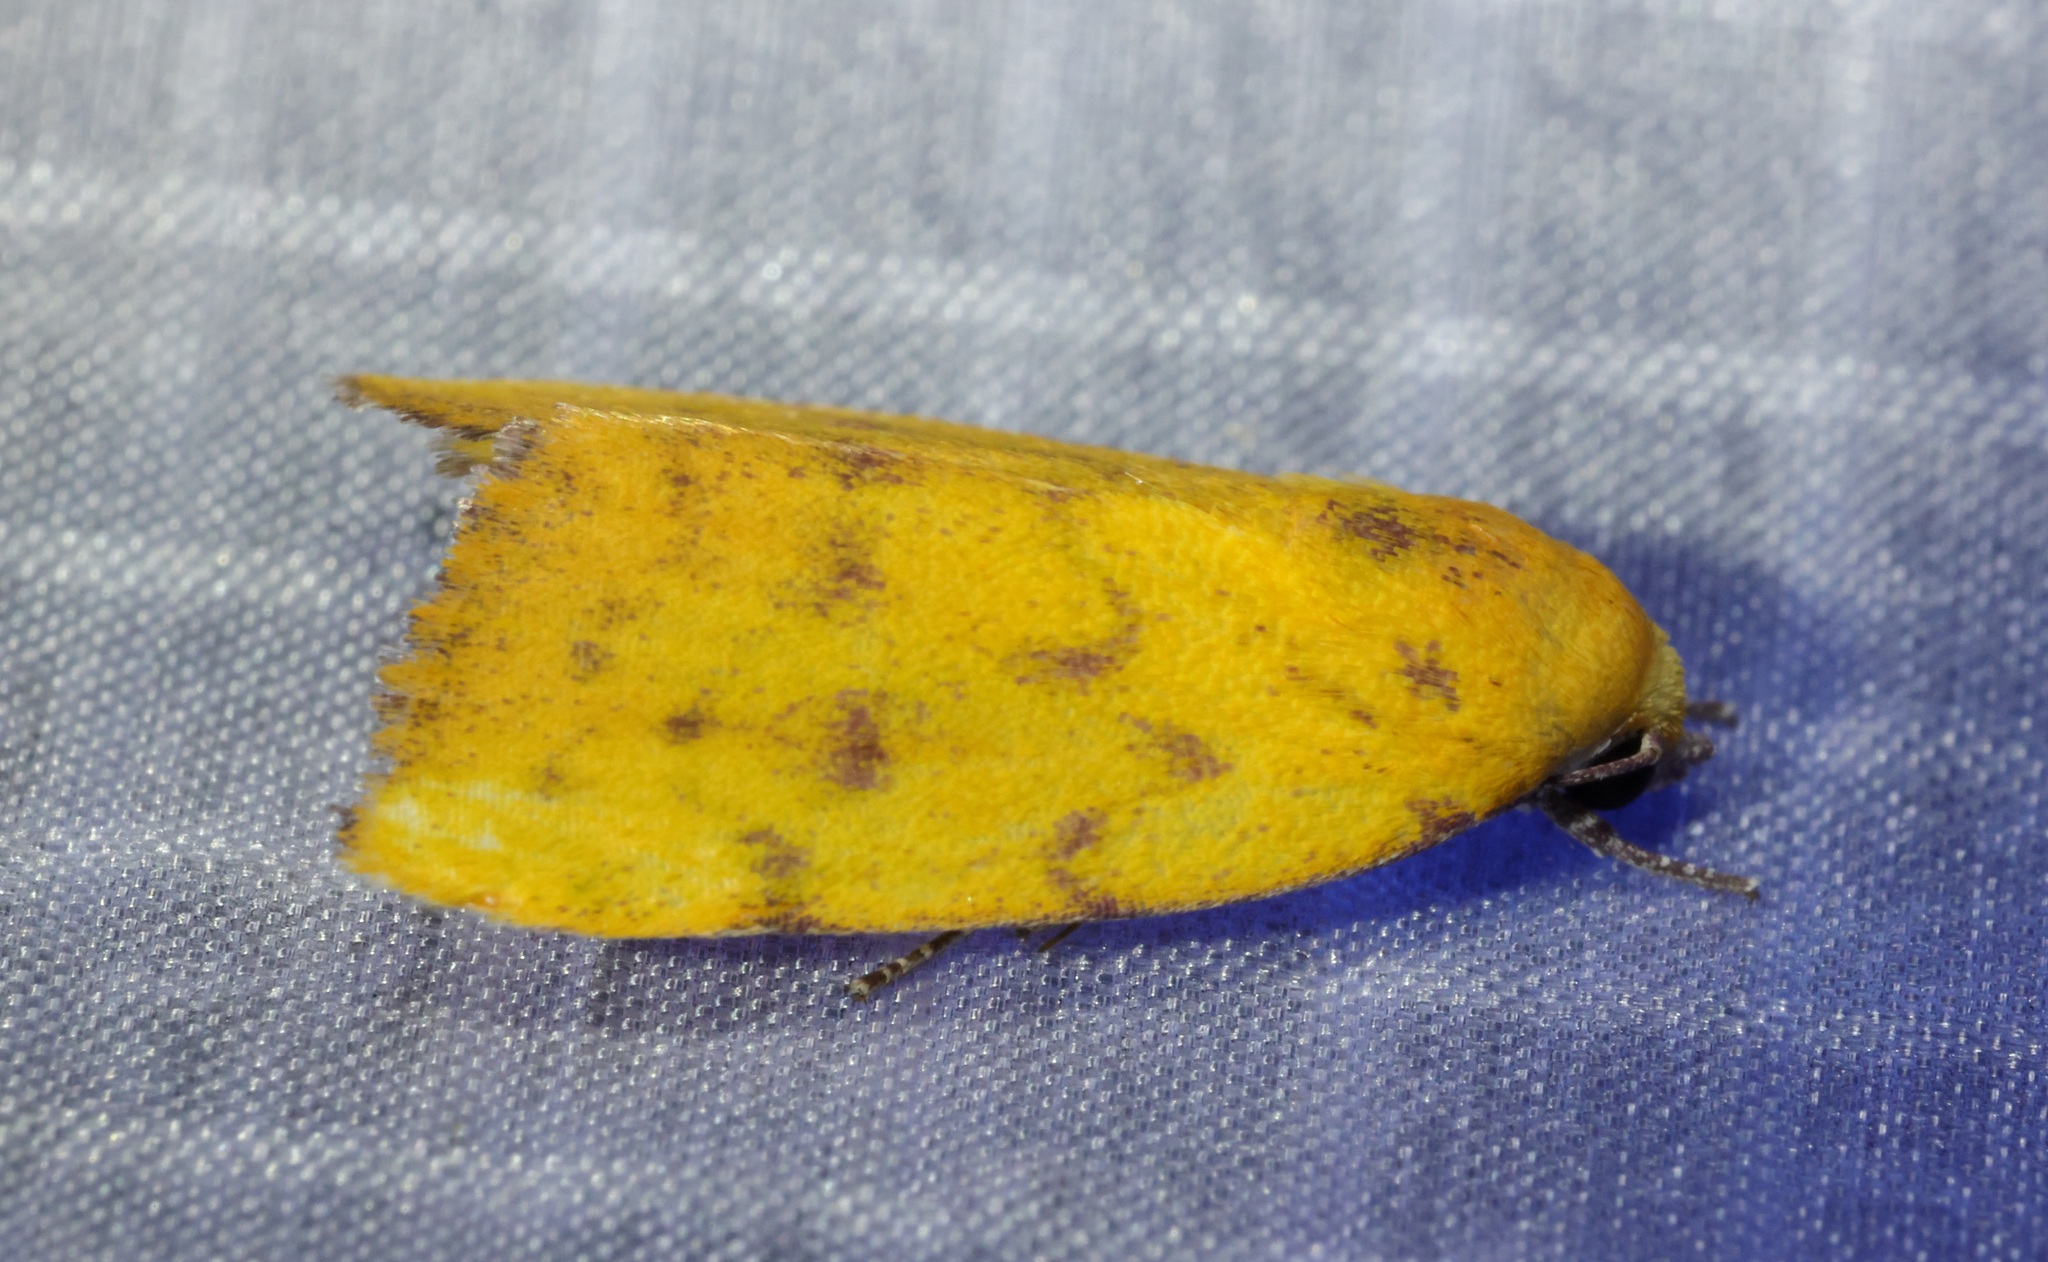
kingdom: Animalia
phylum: Arthropoda
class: Insecta
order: Lepidoptera
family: Nolidae
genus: Earias
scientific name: Earias luteolaria
